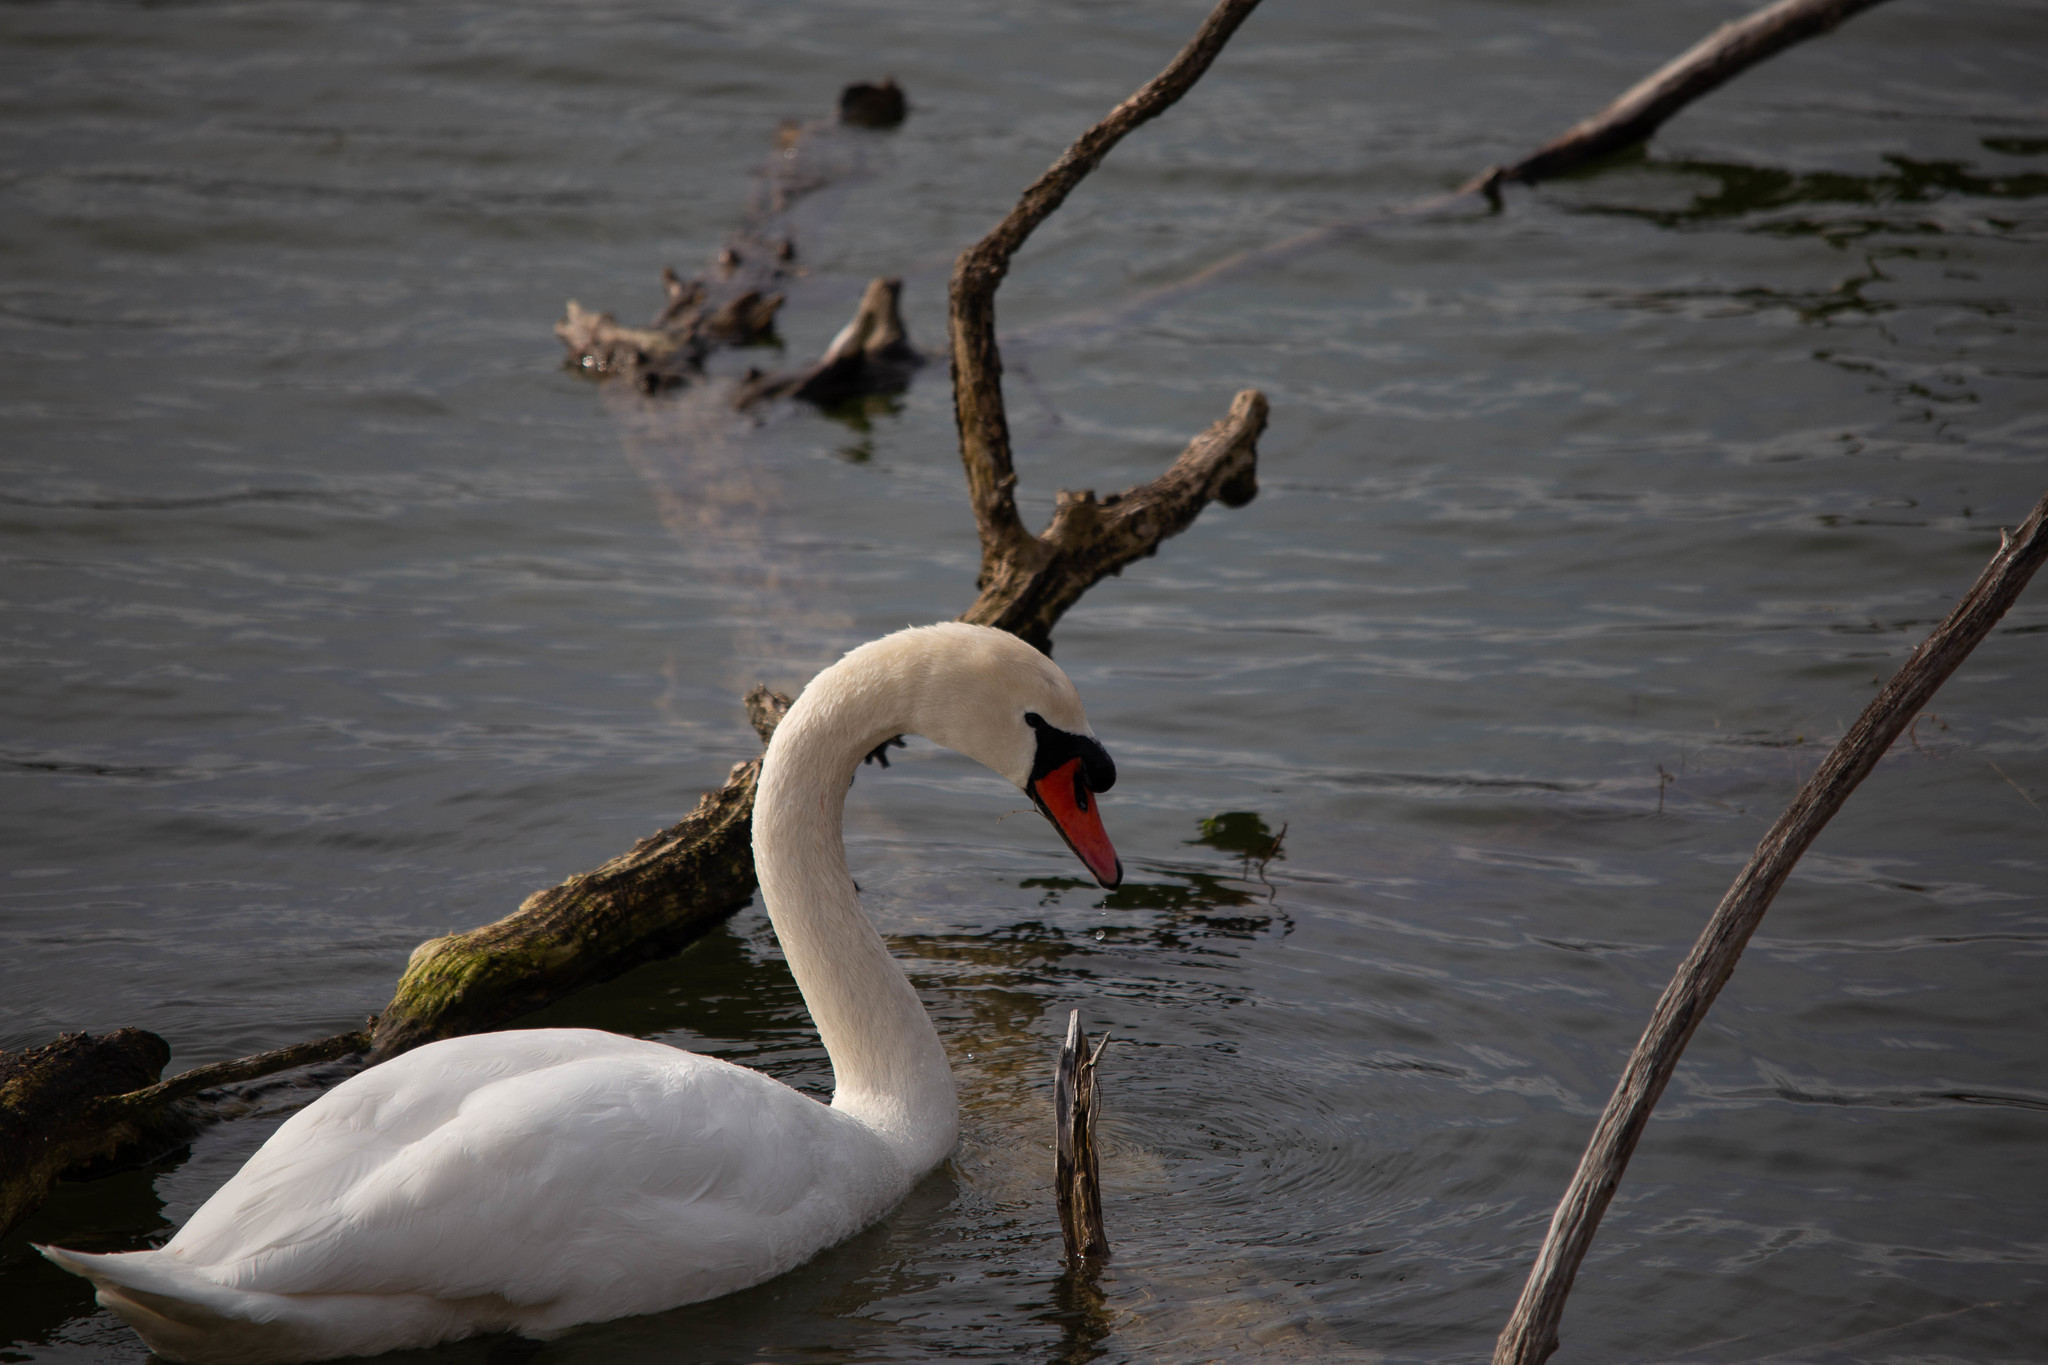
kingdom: Animalia
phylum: Chordata
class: Aves
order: Anseriformes
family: Anatidae
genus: Cygnus
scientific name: Cygnus olor
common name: Mute swan
